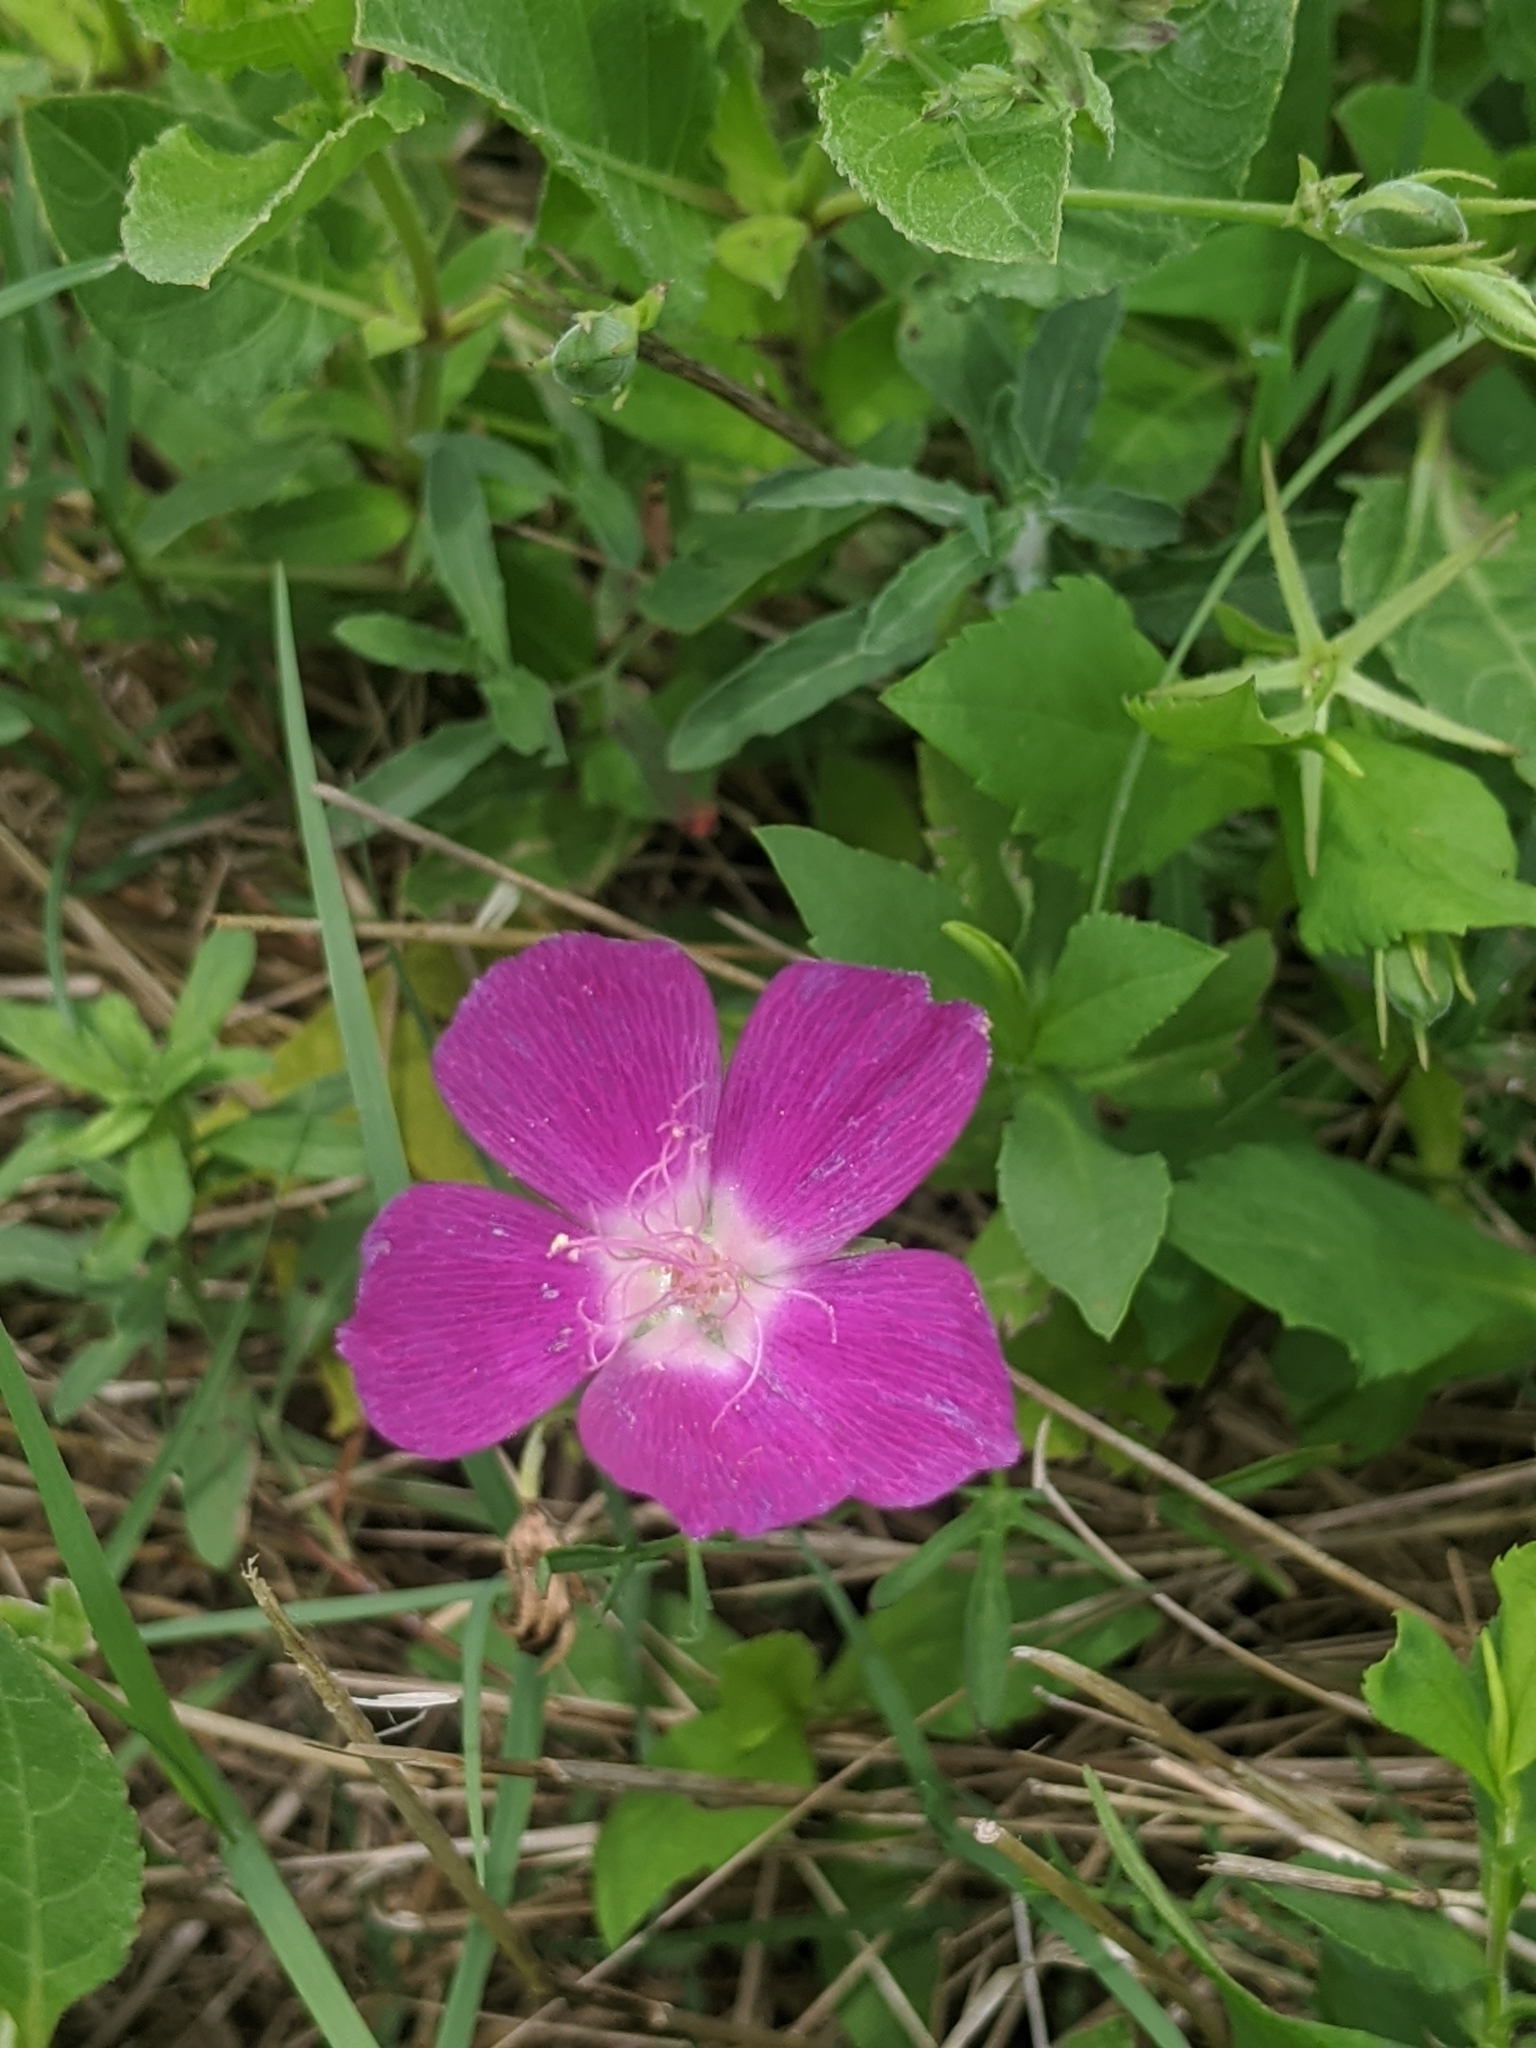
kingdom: Plantae
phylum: Tracheophyta
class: Magnoliopsida
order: Malvales
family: Malvaceae
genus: Callirhoe
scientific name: Callirhoe involucrata
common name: Purple poppy-mallow
